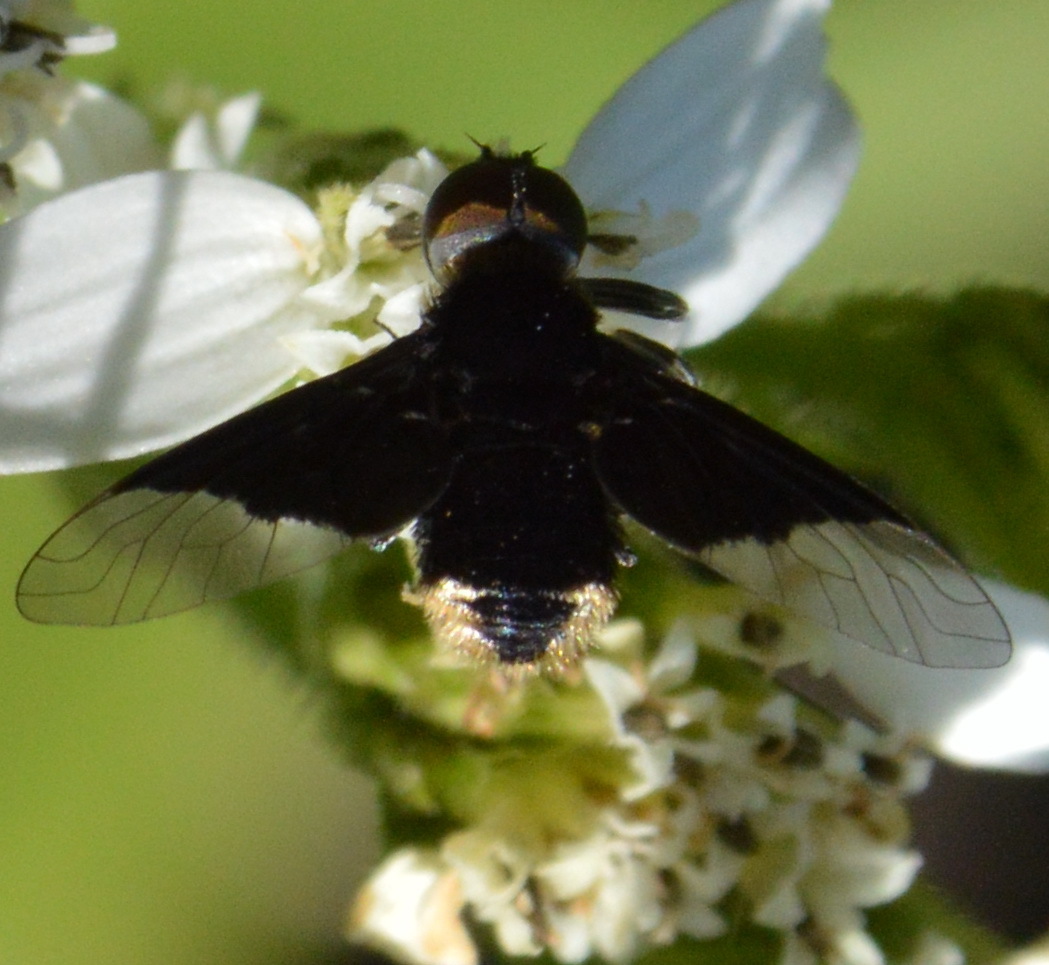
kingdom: Animalia
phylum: Arthropoda
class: Insecta
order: Diptera
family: Bombyliidae
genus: Ins
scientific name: Ins celeris
